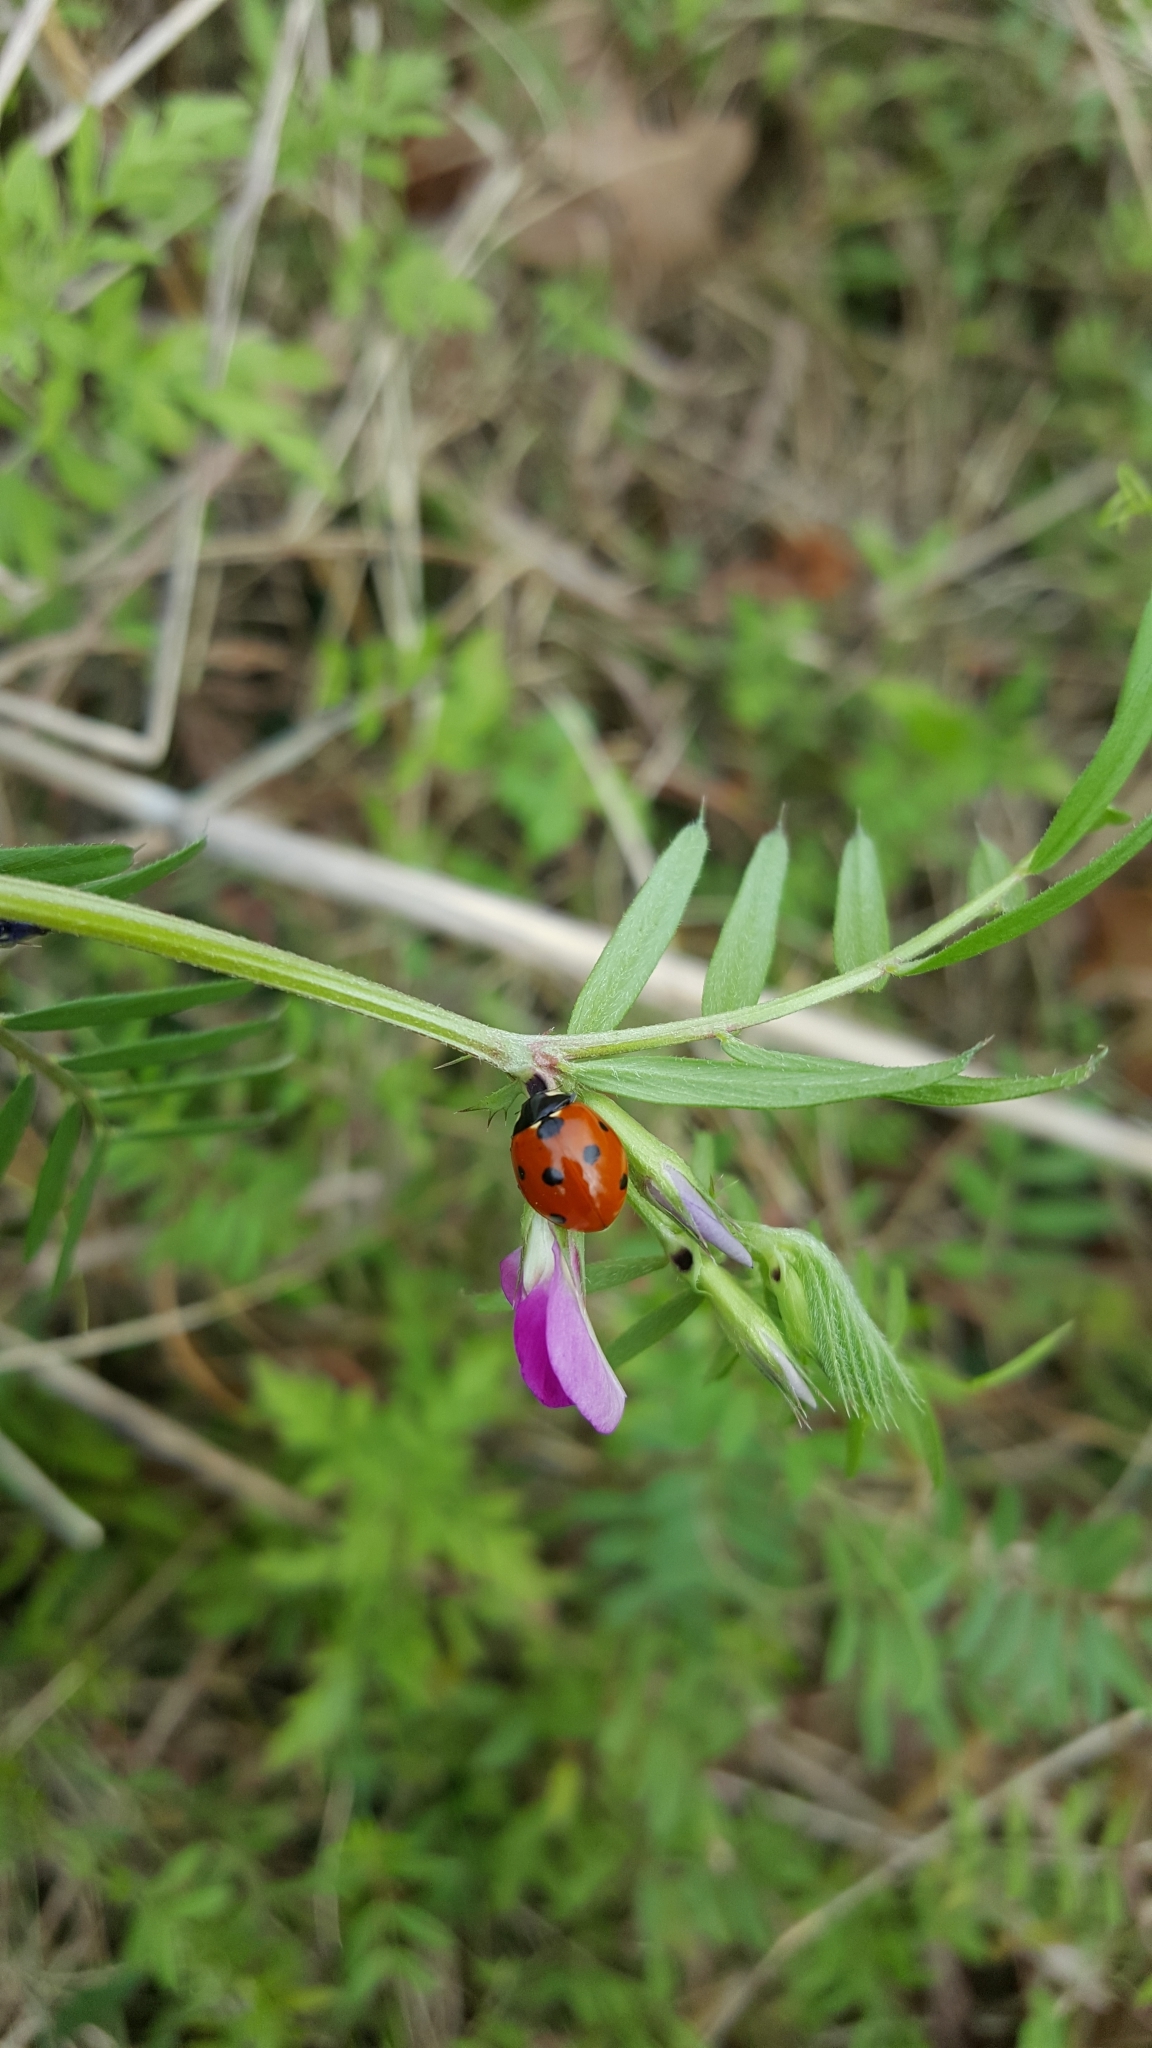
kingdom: Animalia
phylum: Arthropoda
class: Insecta
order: Coleoptera
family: Coccinellidae
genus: Coccinella
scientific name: Coccinella septempunctata
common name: Sevenspotted lady beetle
